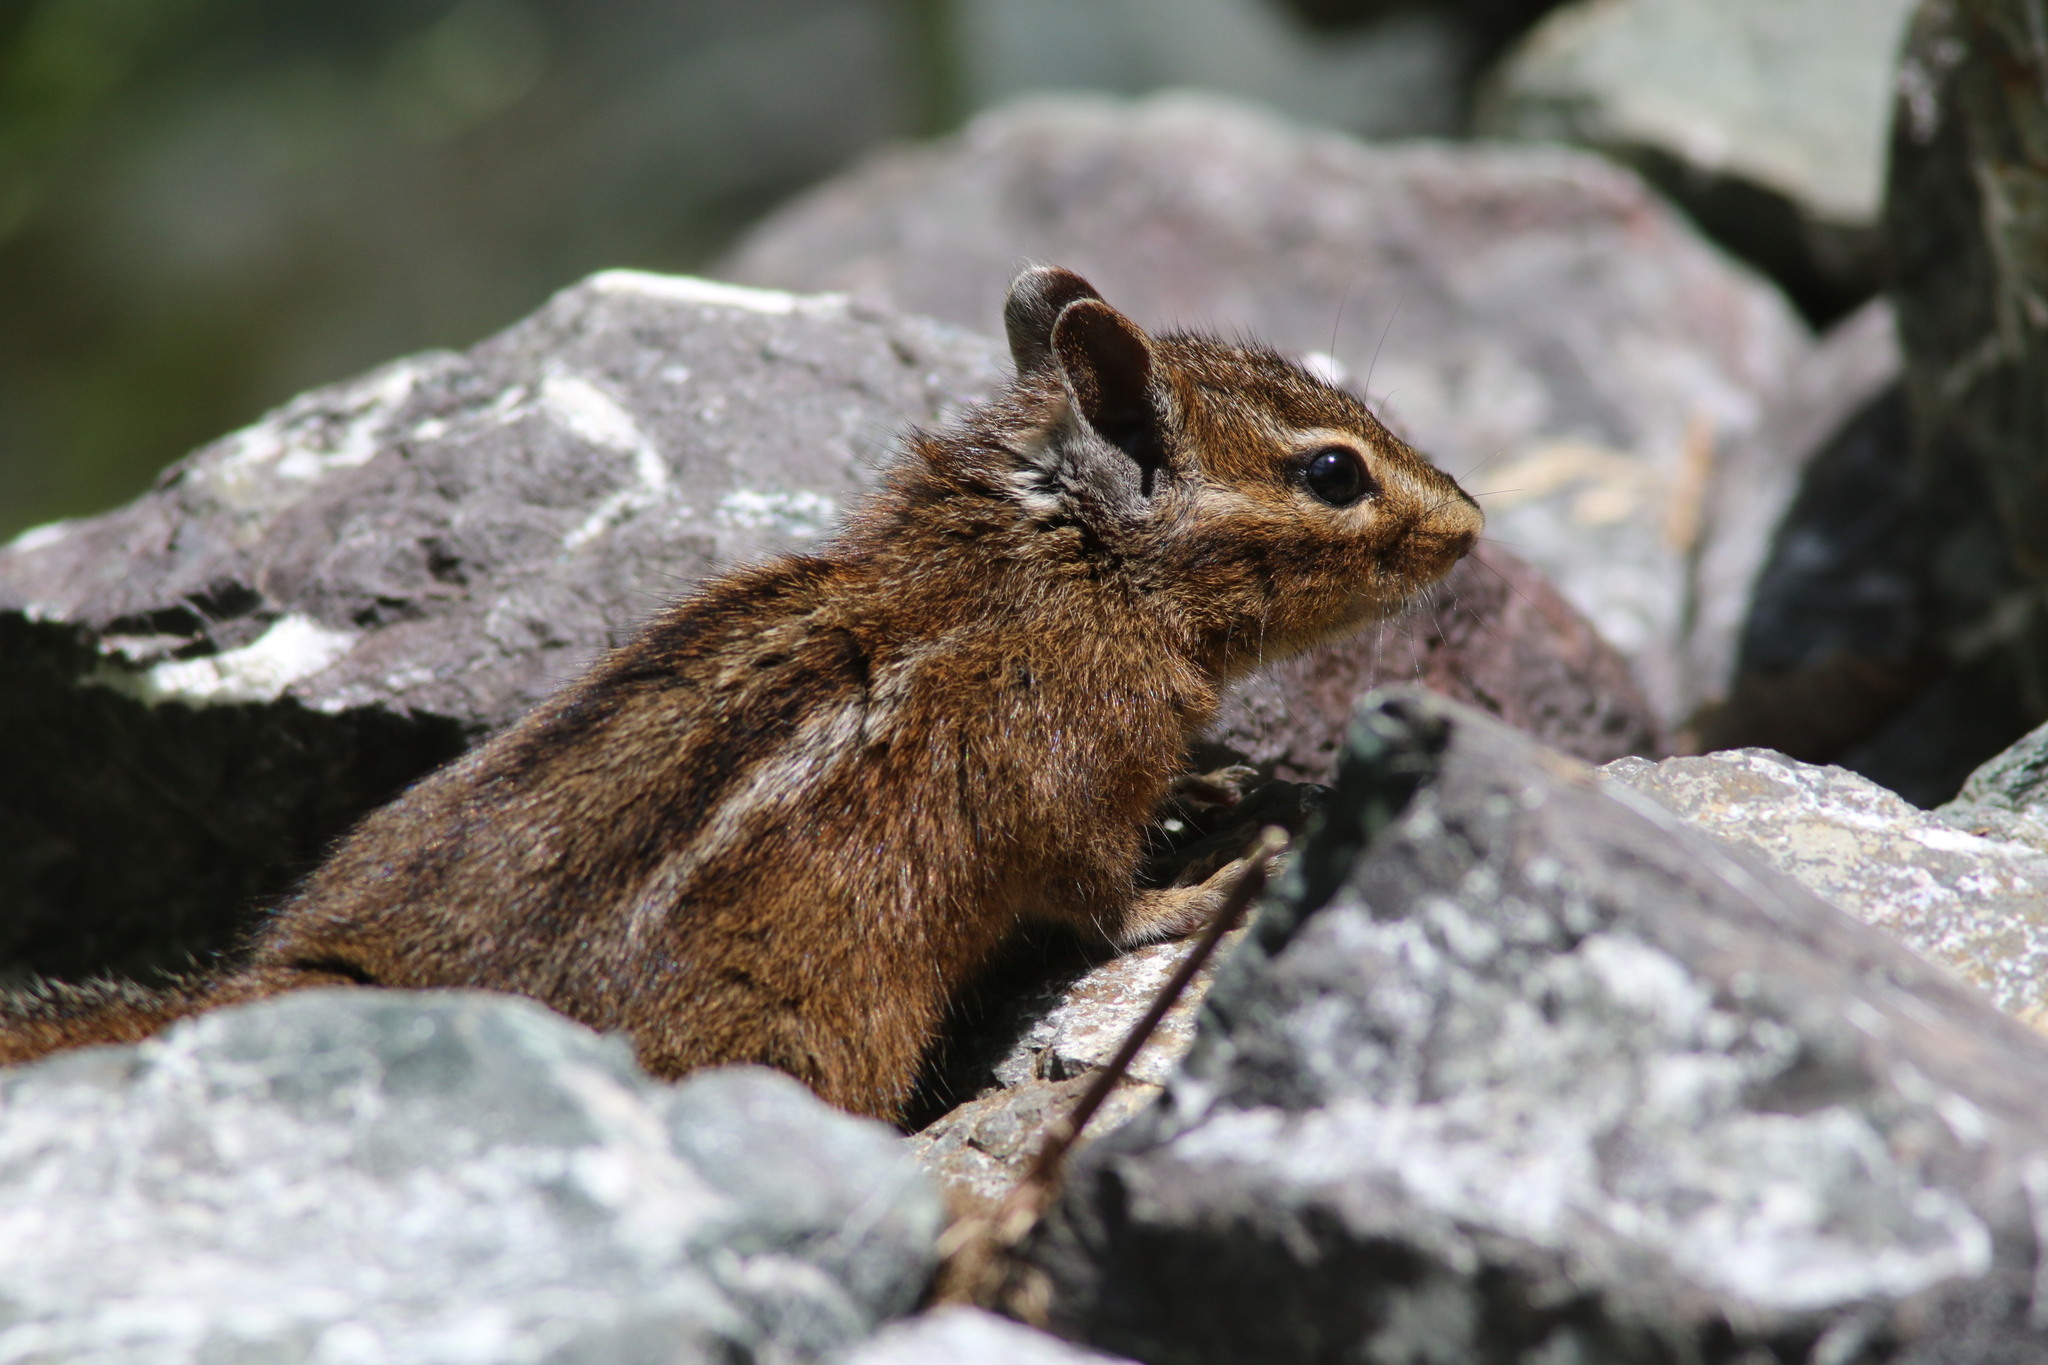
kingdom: Animalia
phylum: Chordata
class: Mammalia
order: Rodentia
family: Sciuridae
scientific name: Sciuridae
